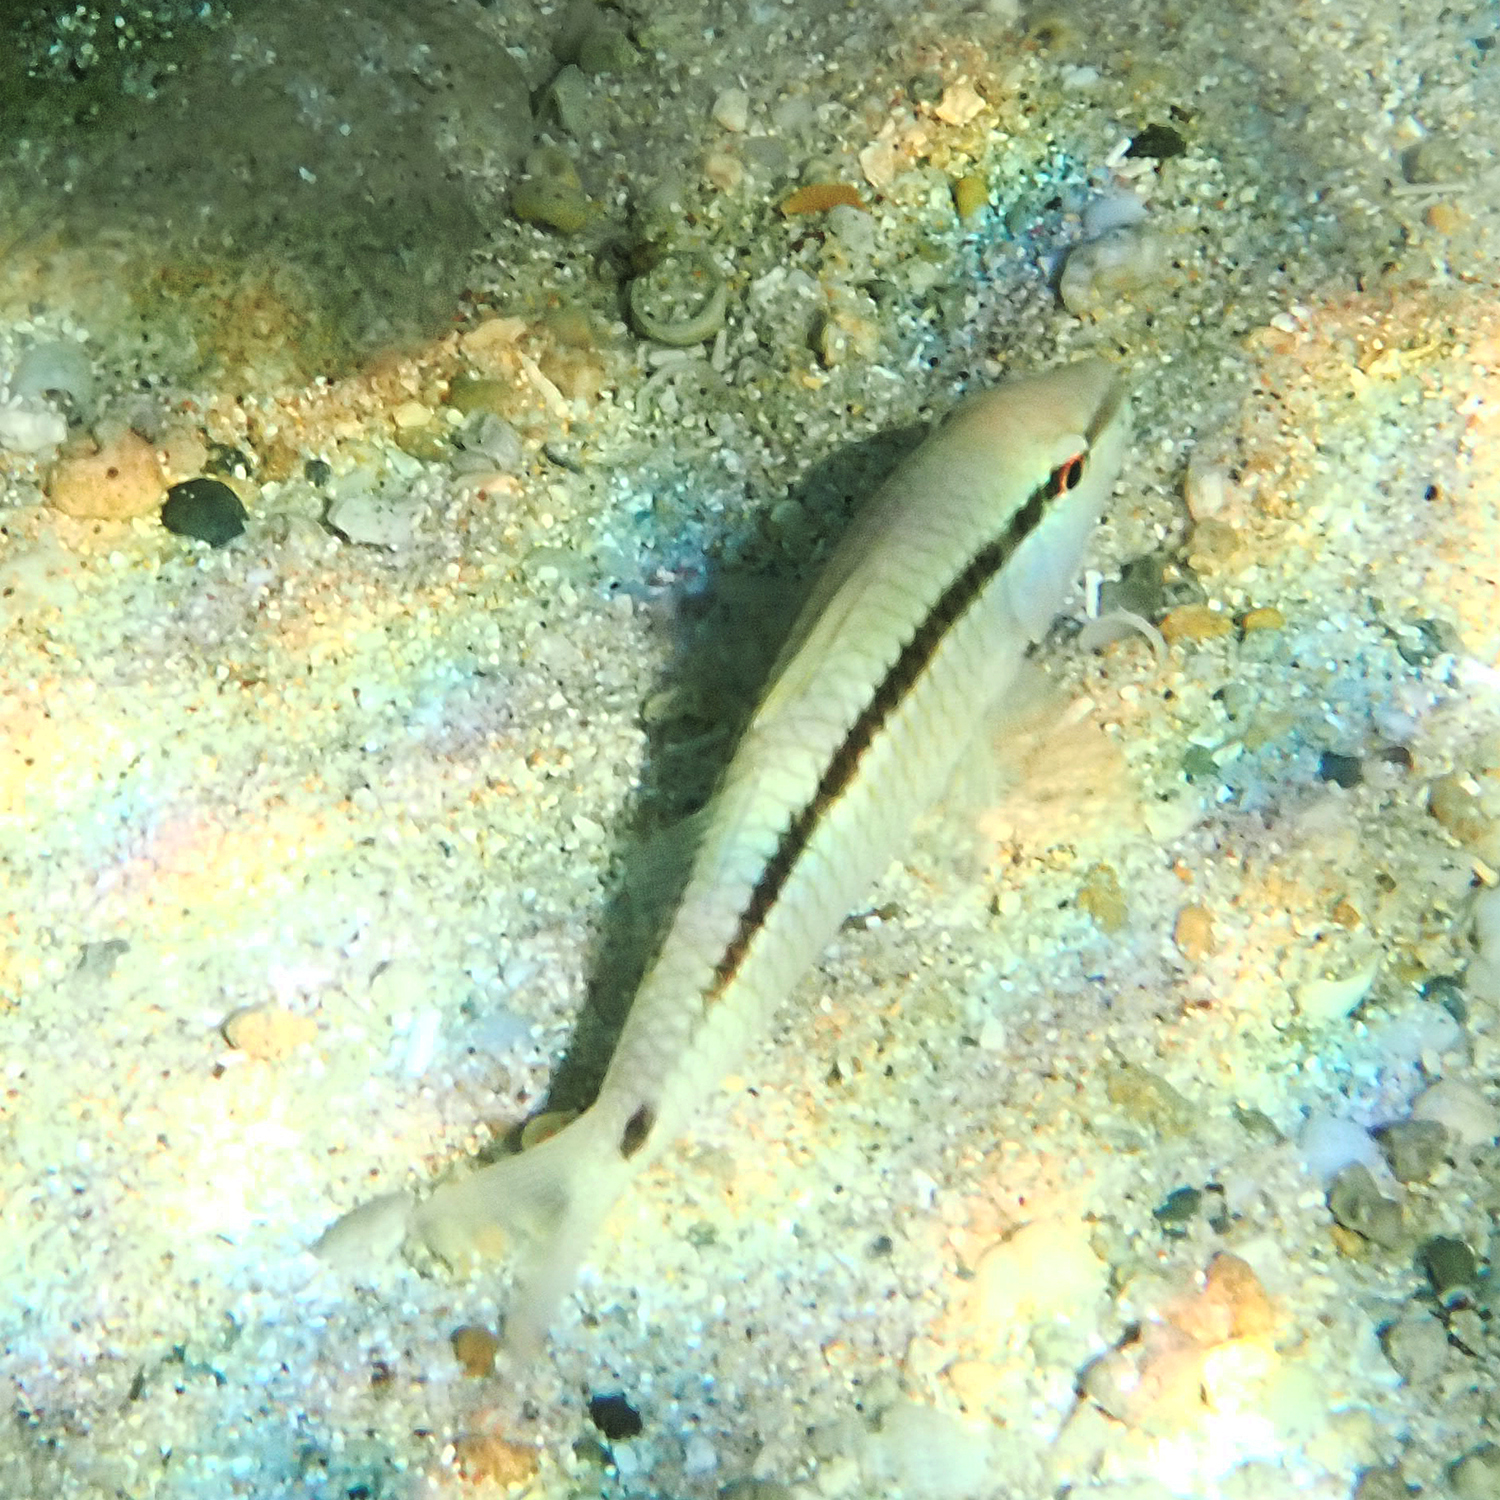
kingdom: Animalia
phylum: Chordata
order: Perciformes
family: Mullidae
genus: Parupeneus
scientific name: Parupeneus barberinus
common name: Dash-and-dot goatfish
